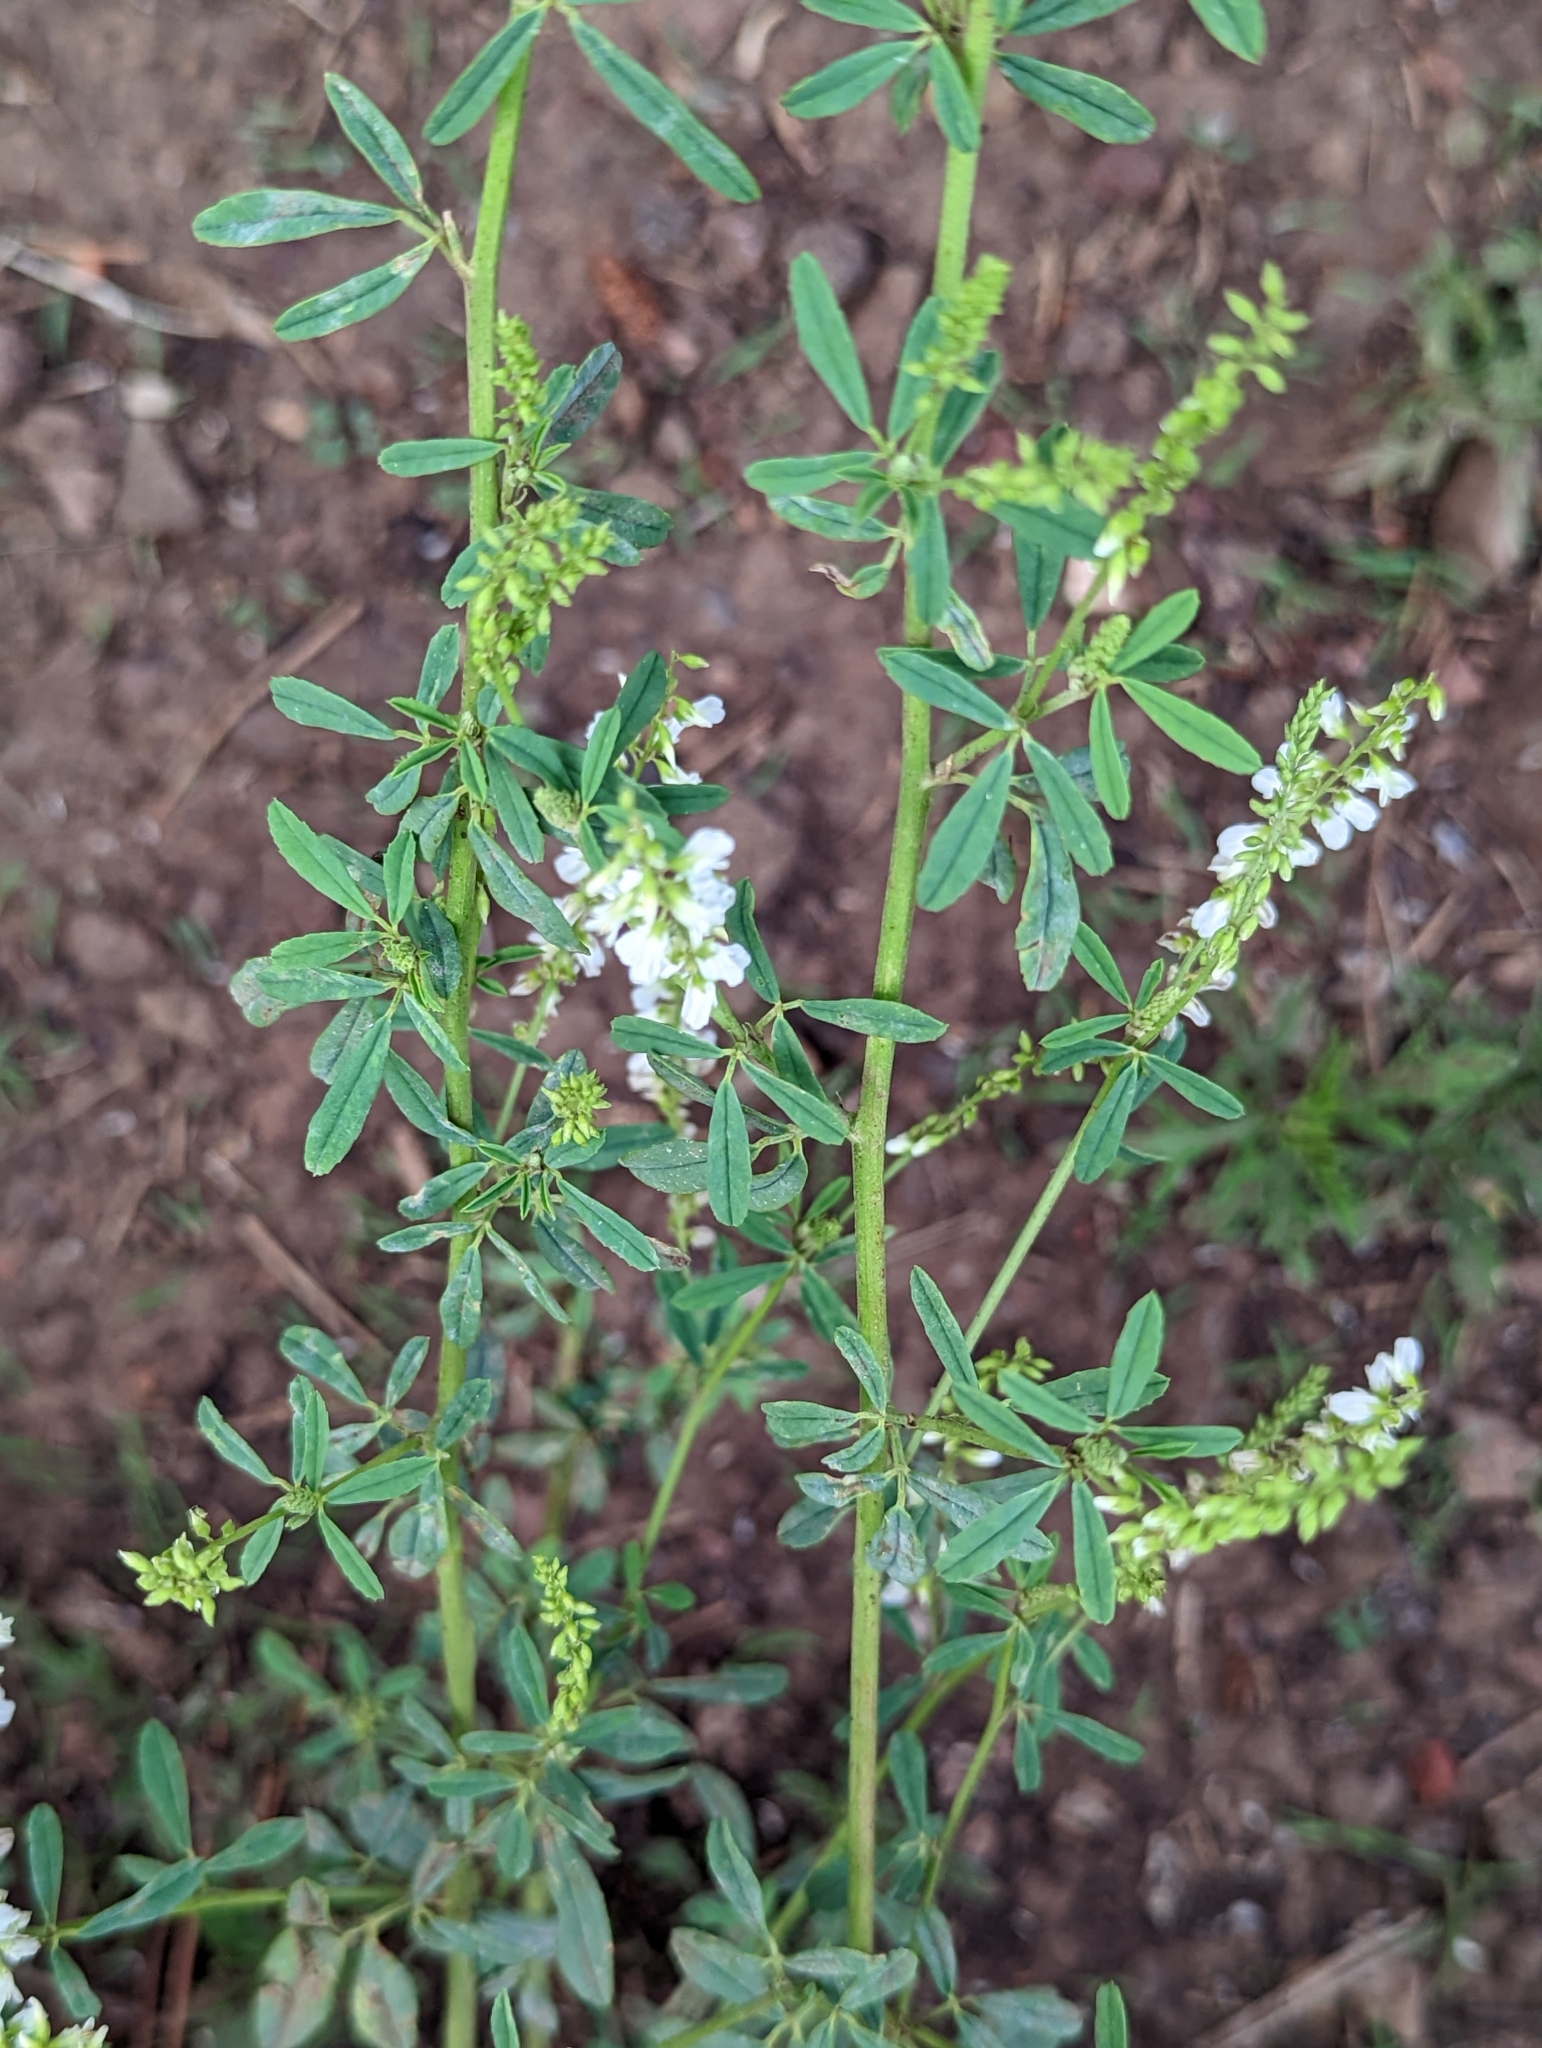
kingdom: Plantae
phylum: Tracheophyta
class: Magnoliopsida
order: Fabales
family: Fabaceae
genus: Melilotus
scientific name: Melilotus albus
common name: White melilot
